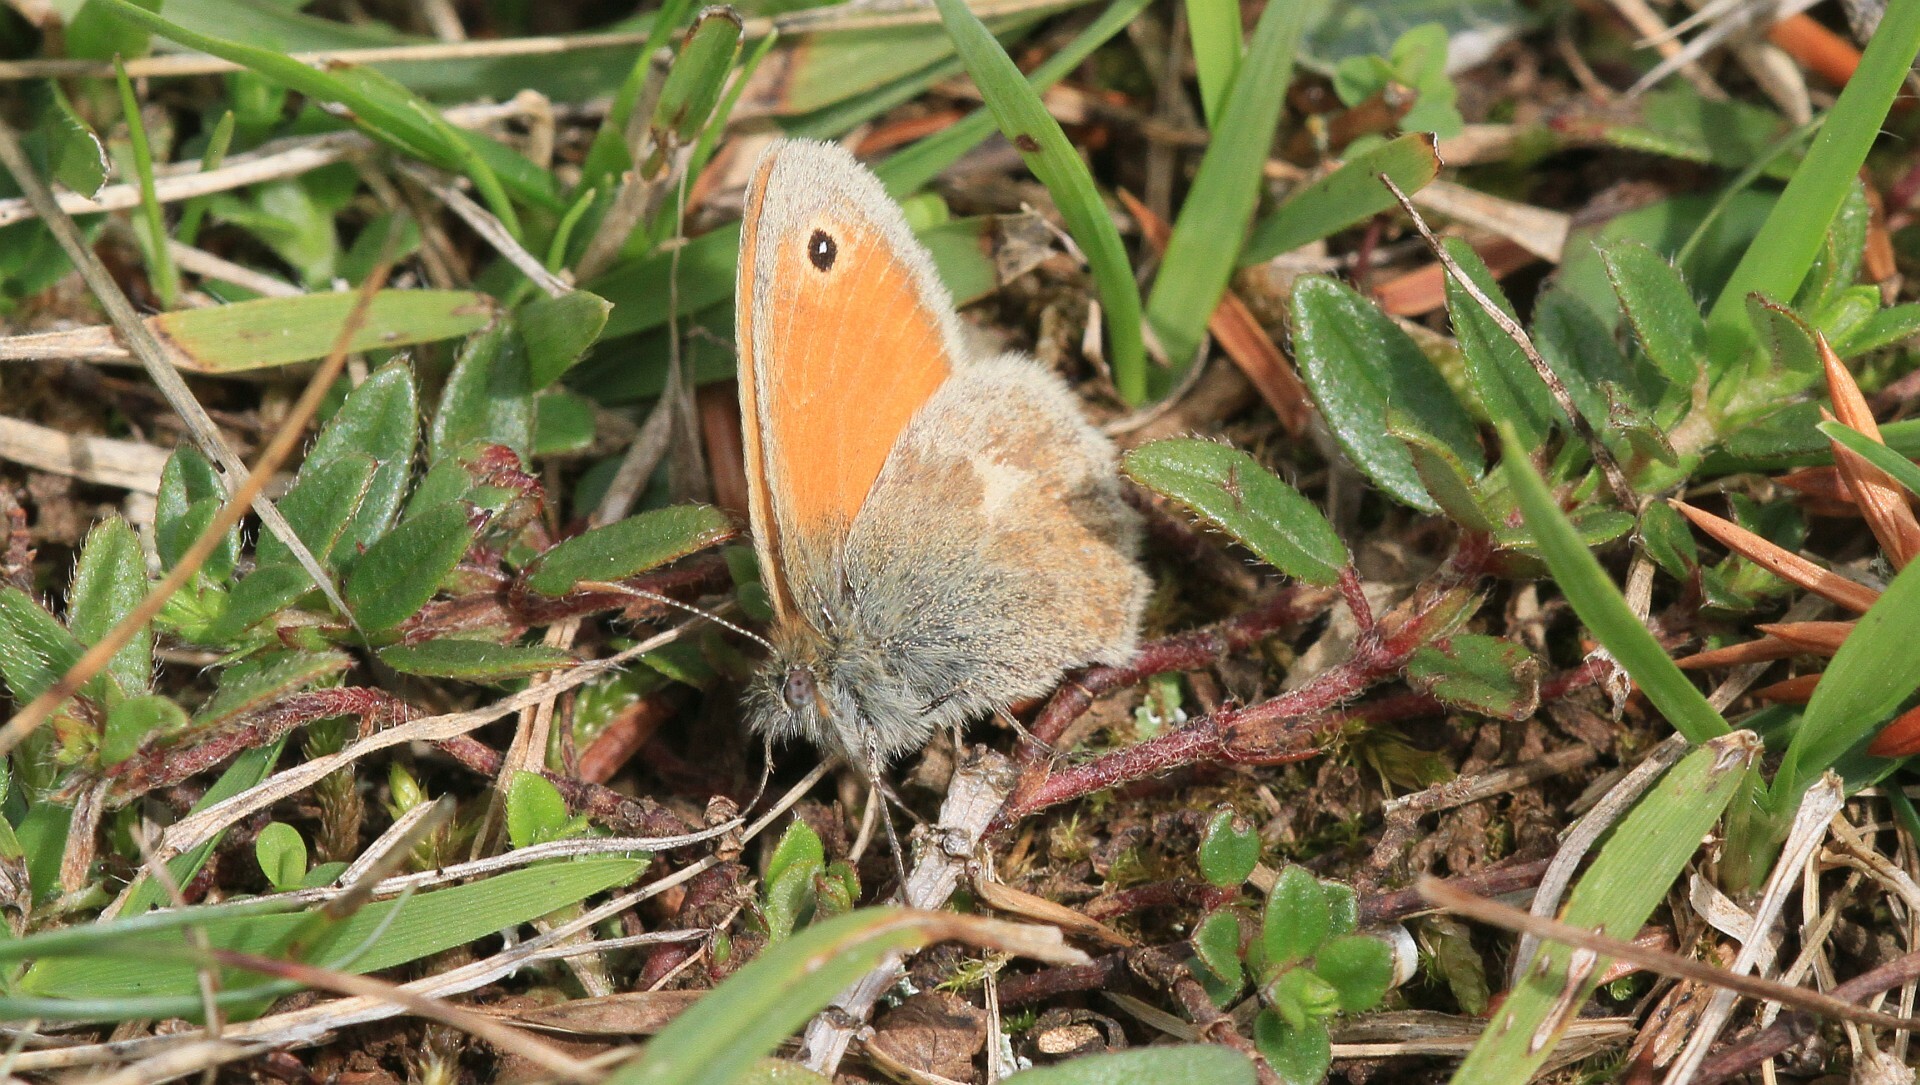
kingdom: Animalia
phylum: Arthropoda
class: Insecta
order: Lepidoptera
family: Nymphalidae
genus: Coenonympha
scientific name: Coenonympha pamphilus
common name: Small heath
